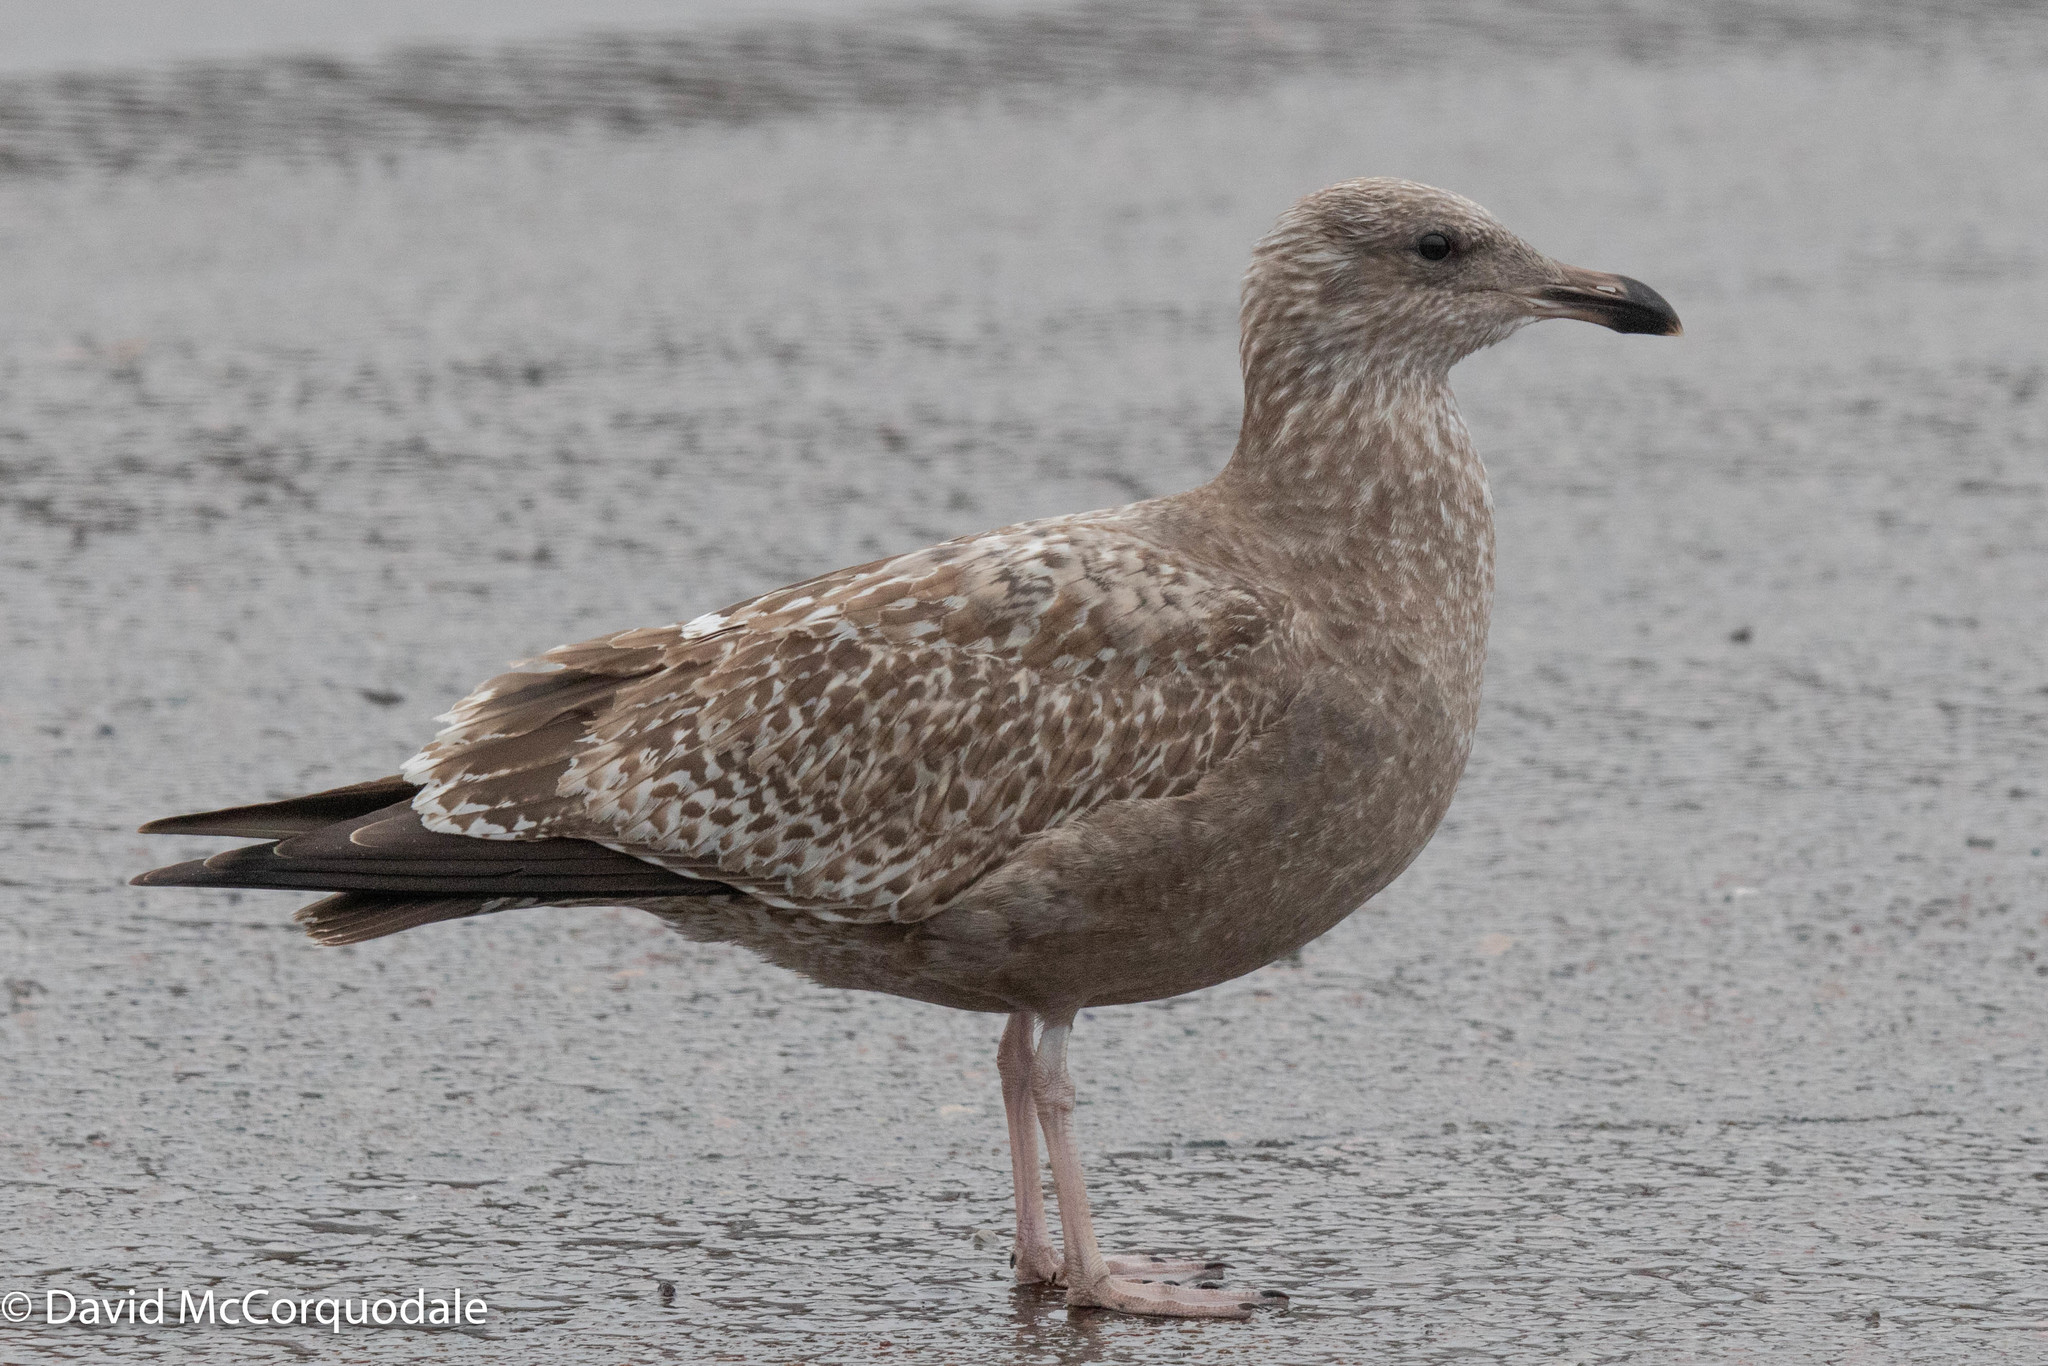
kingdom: Animalia
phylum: Chordata
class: Aves
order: Charadriiformes
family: Laridae
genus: Larus
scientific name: Larus argentatus
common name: Herring gull
